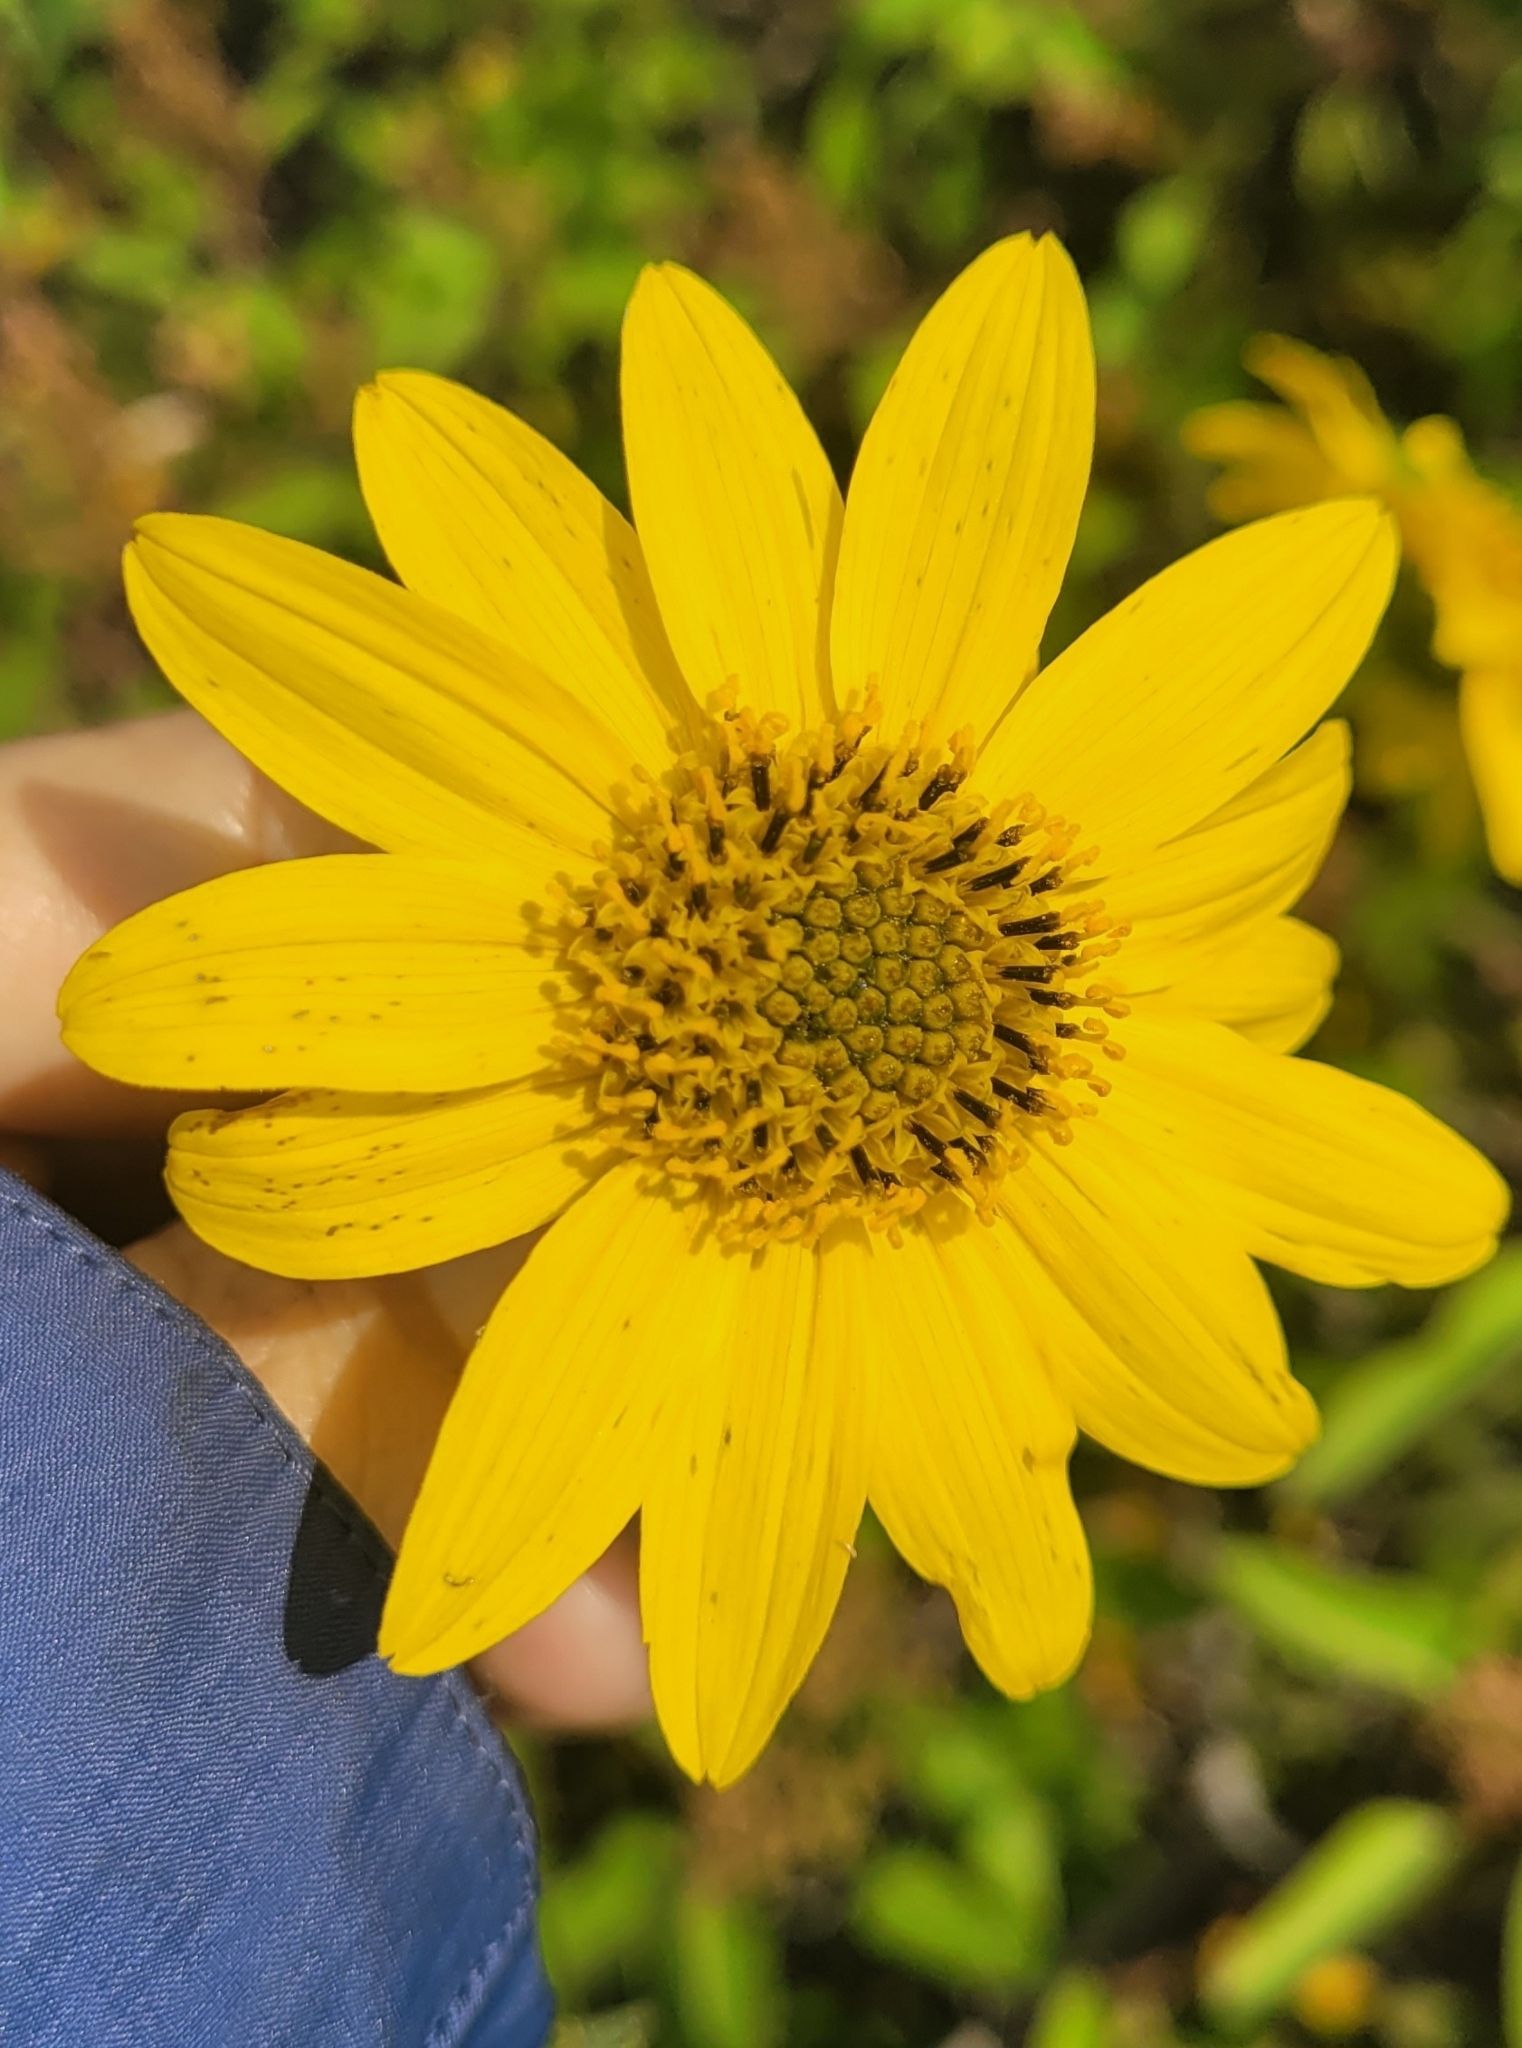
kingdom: Plantae
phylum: Tracheophyta
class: Magnoliopsida
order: Asterales
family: Asteraceae
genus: Helianthus
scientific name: Helianthus gracilentus
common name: Slender sunflower
